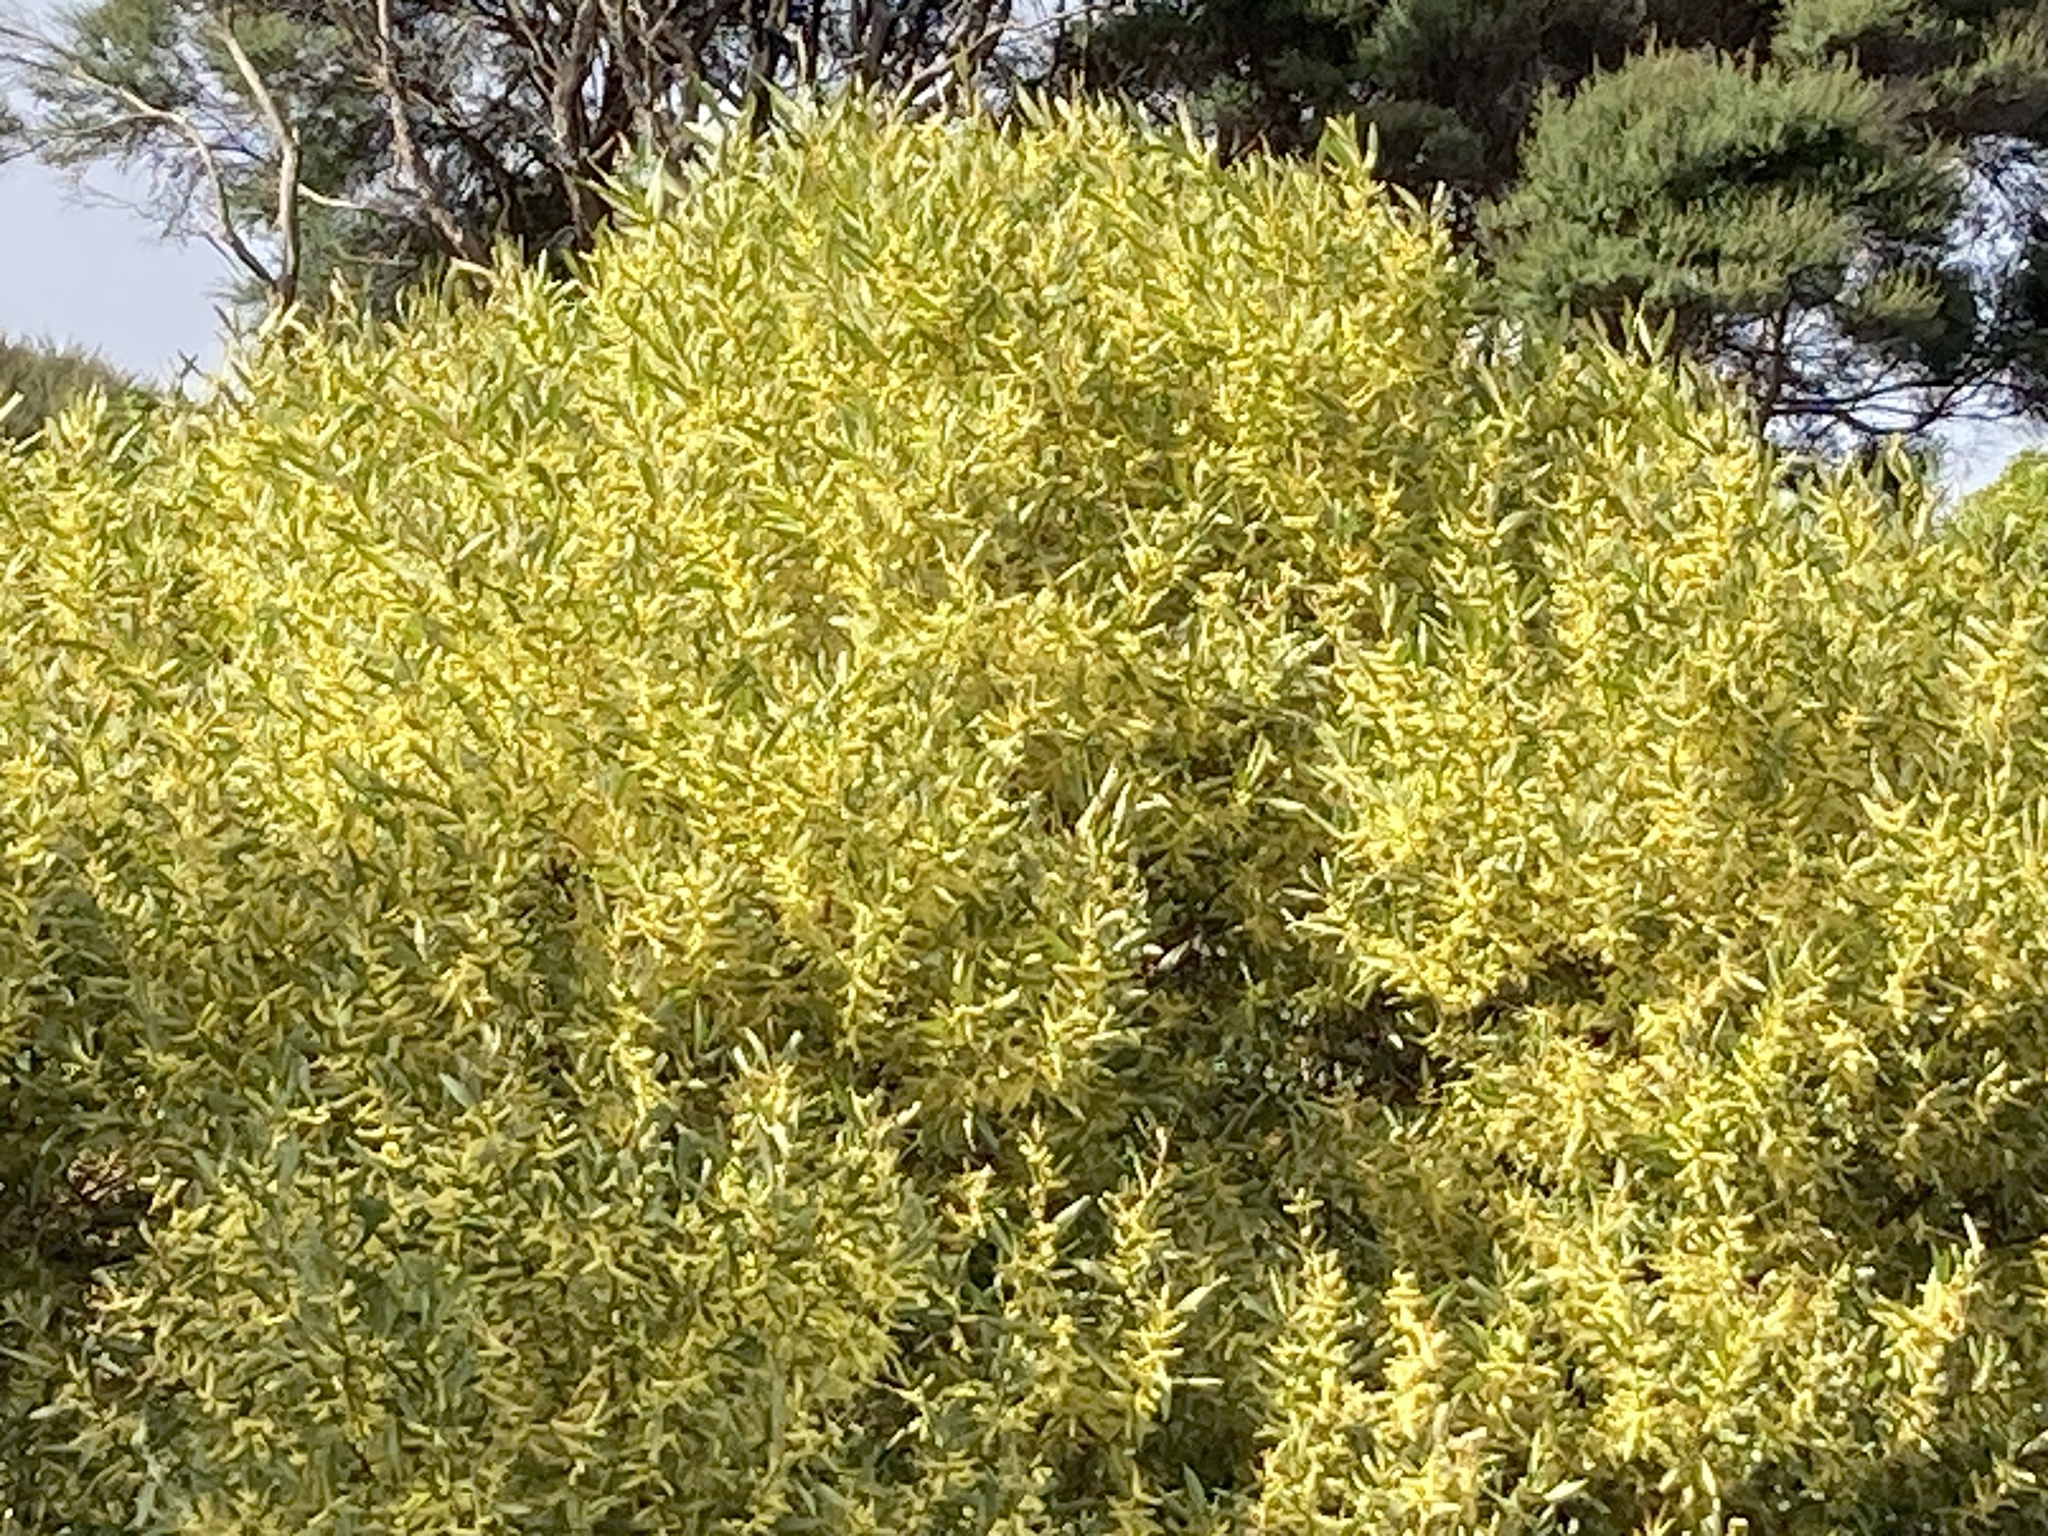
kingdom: Plantae
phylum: Tracheophyta
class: Magnoliopsida
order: Fabales
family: Fabaceae
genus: Acacia
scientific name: Acacia longifolia
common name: Sydney golden wattle
